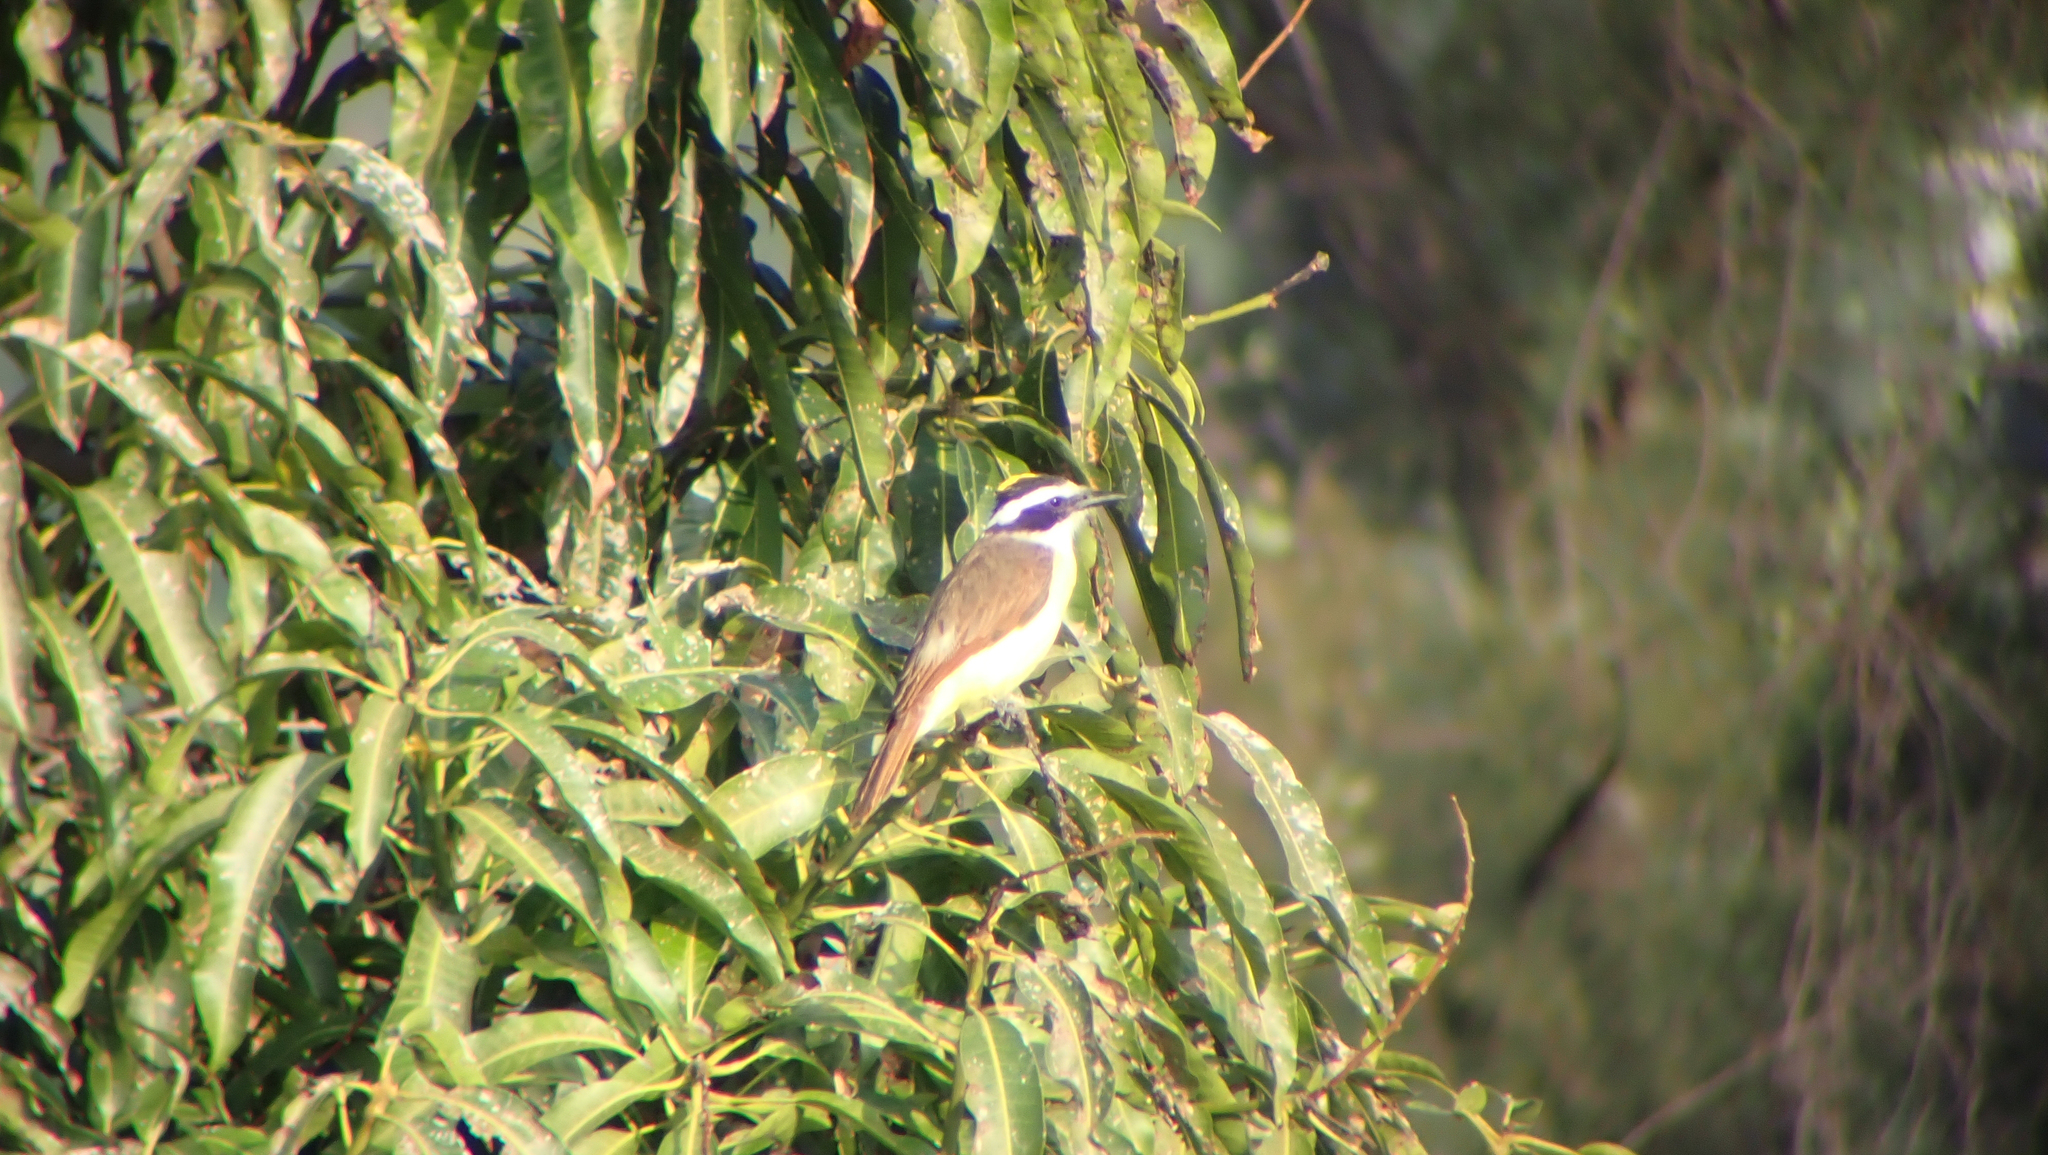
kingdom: Animalia
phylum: Chordata
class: Aves
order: Passeriformes
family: Tyrannidae
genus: Pitangus
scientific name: Pitangus sulphuratus
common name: Great kiskadee
